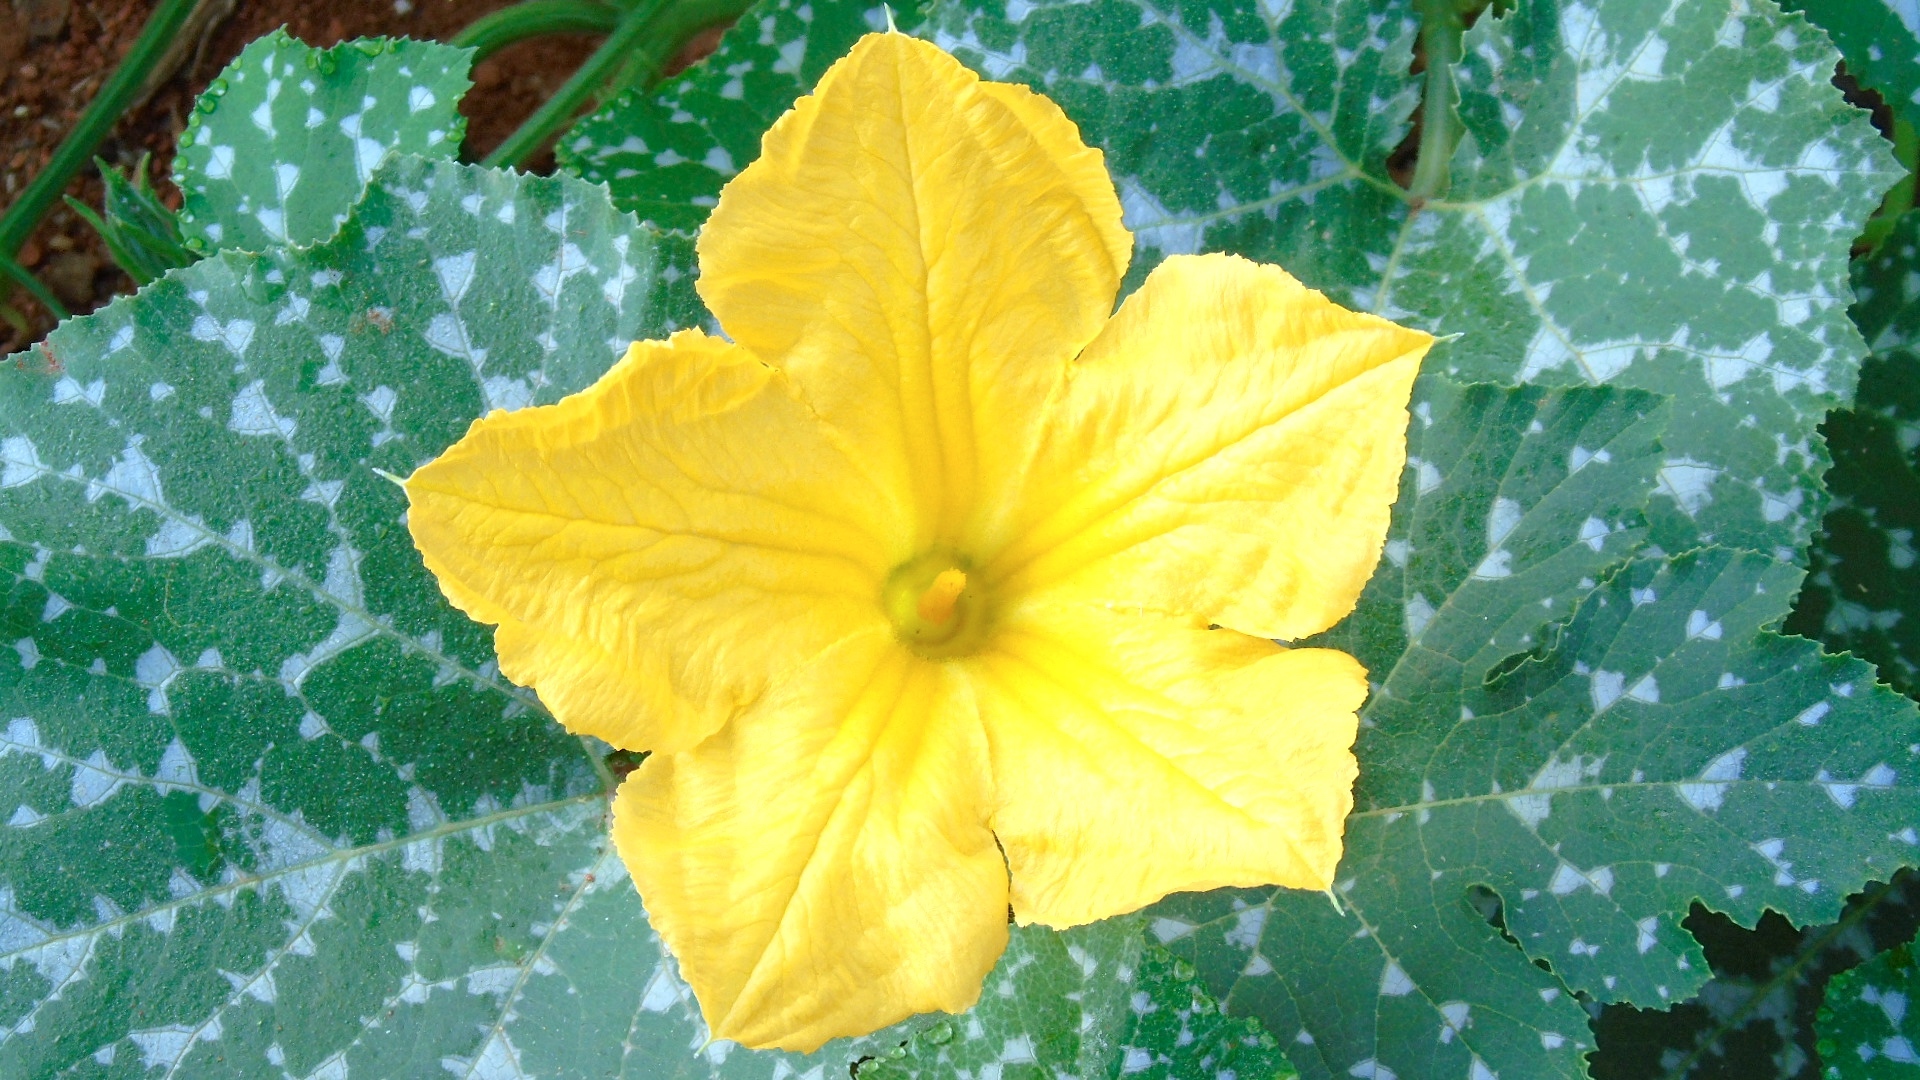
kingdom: Plantae
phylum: Tracheophyta
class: Magnoliopsida
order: Cucurbitales
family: Cucurbitaceae
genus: Cucurbita
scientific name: Cucurbita ficifolia
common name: Figleaf gourd
